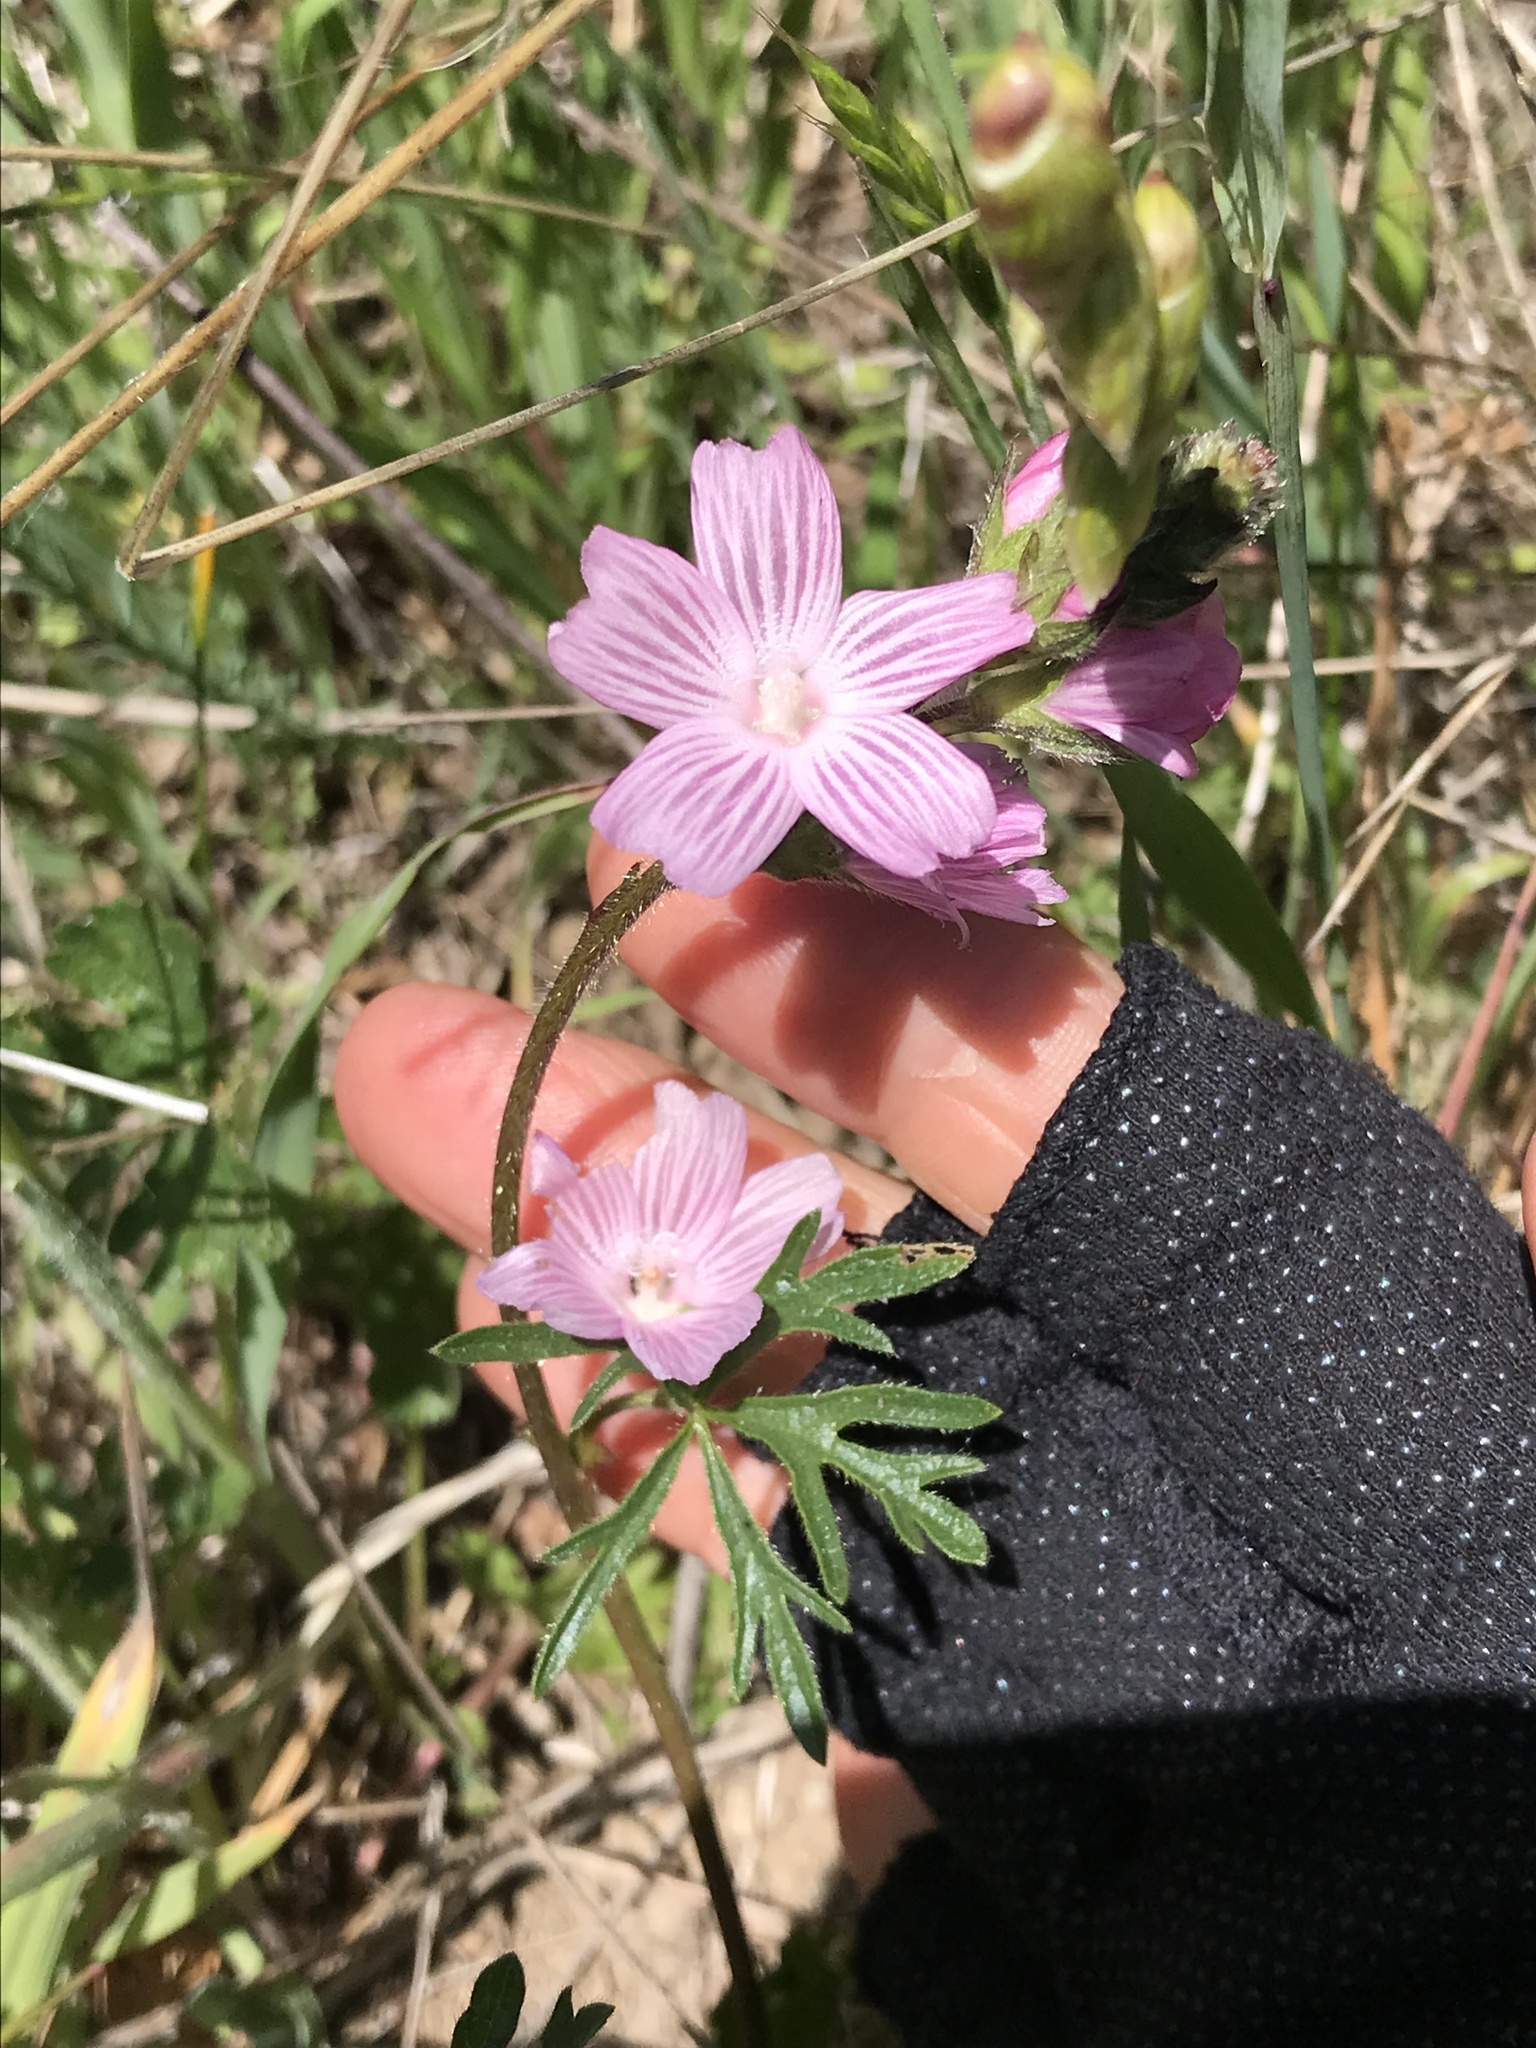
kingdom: Plantae
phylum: Tracheophyta
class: Magnoliopsida
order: Malvales
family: Malvaceae
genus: Sidalcea
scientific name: Sidalcea malviflora
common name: Greek mallow
